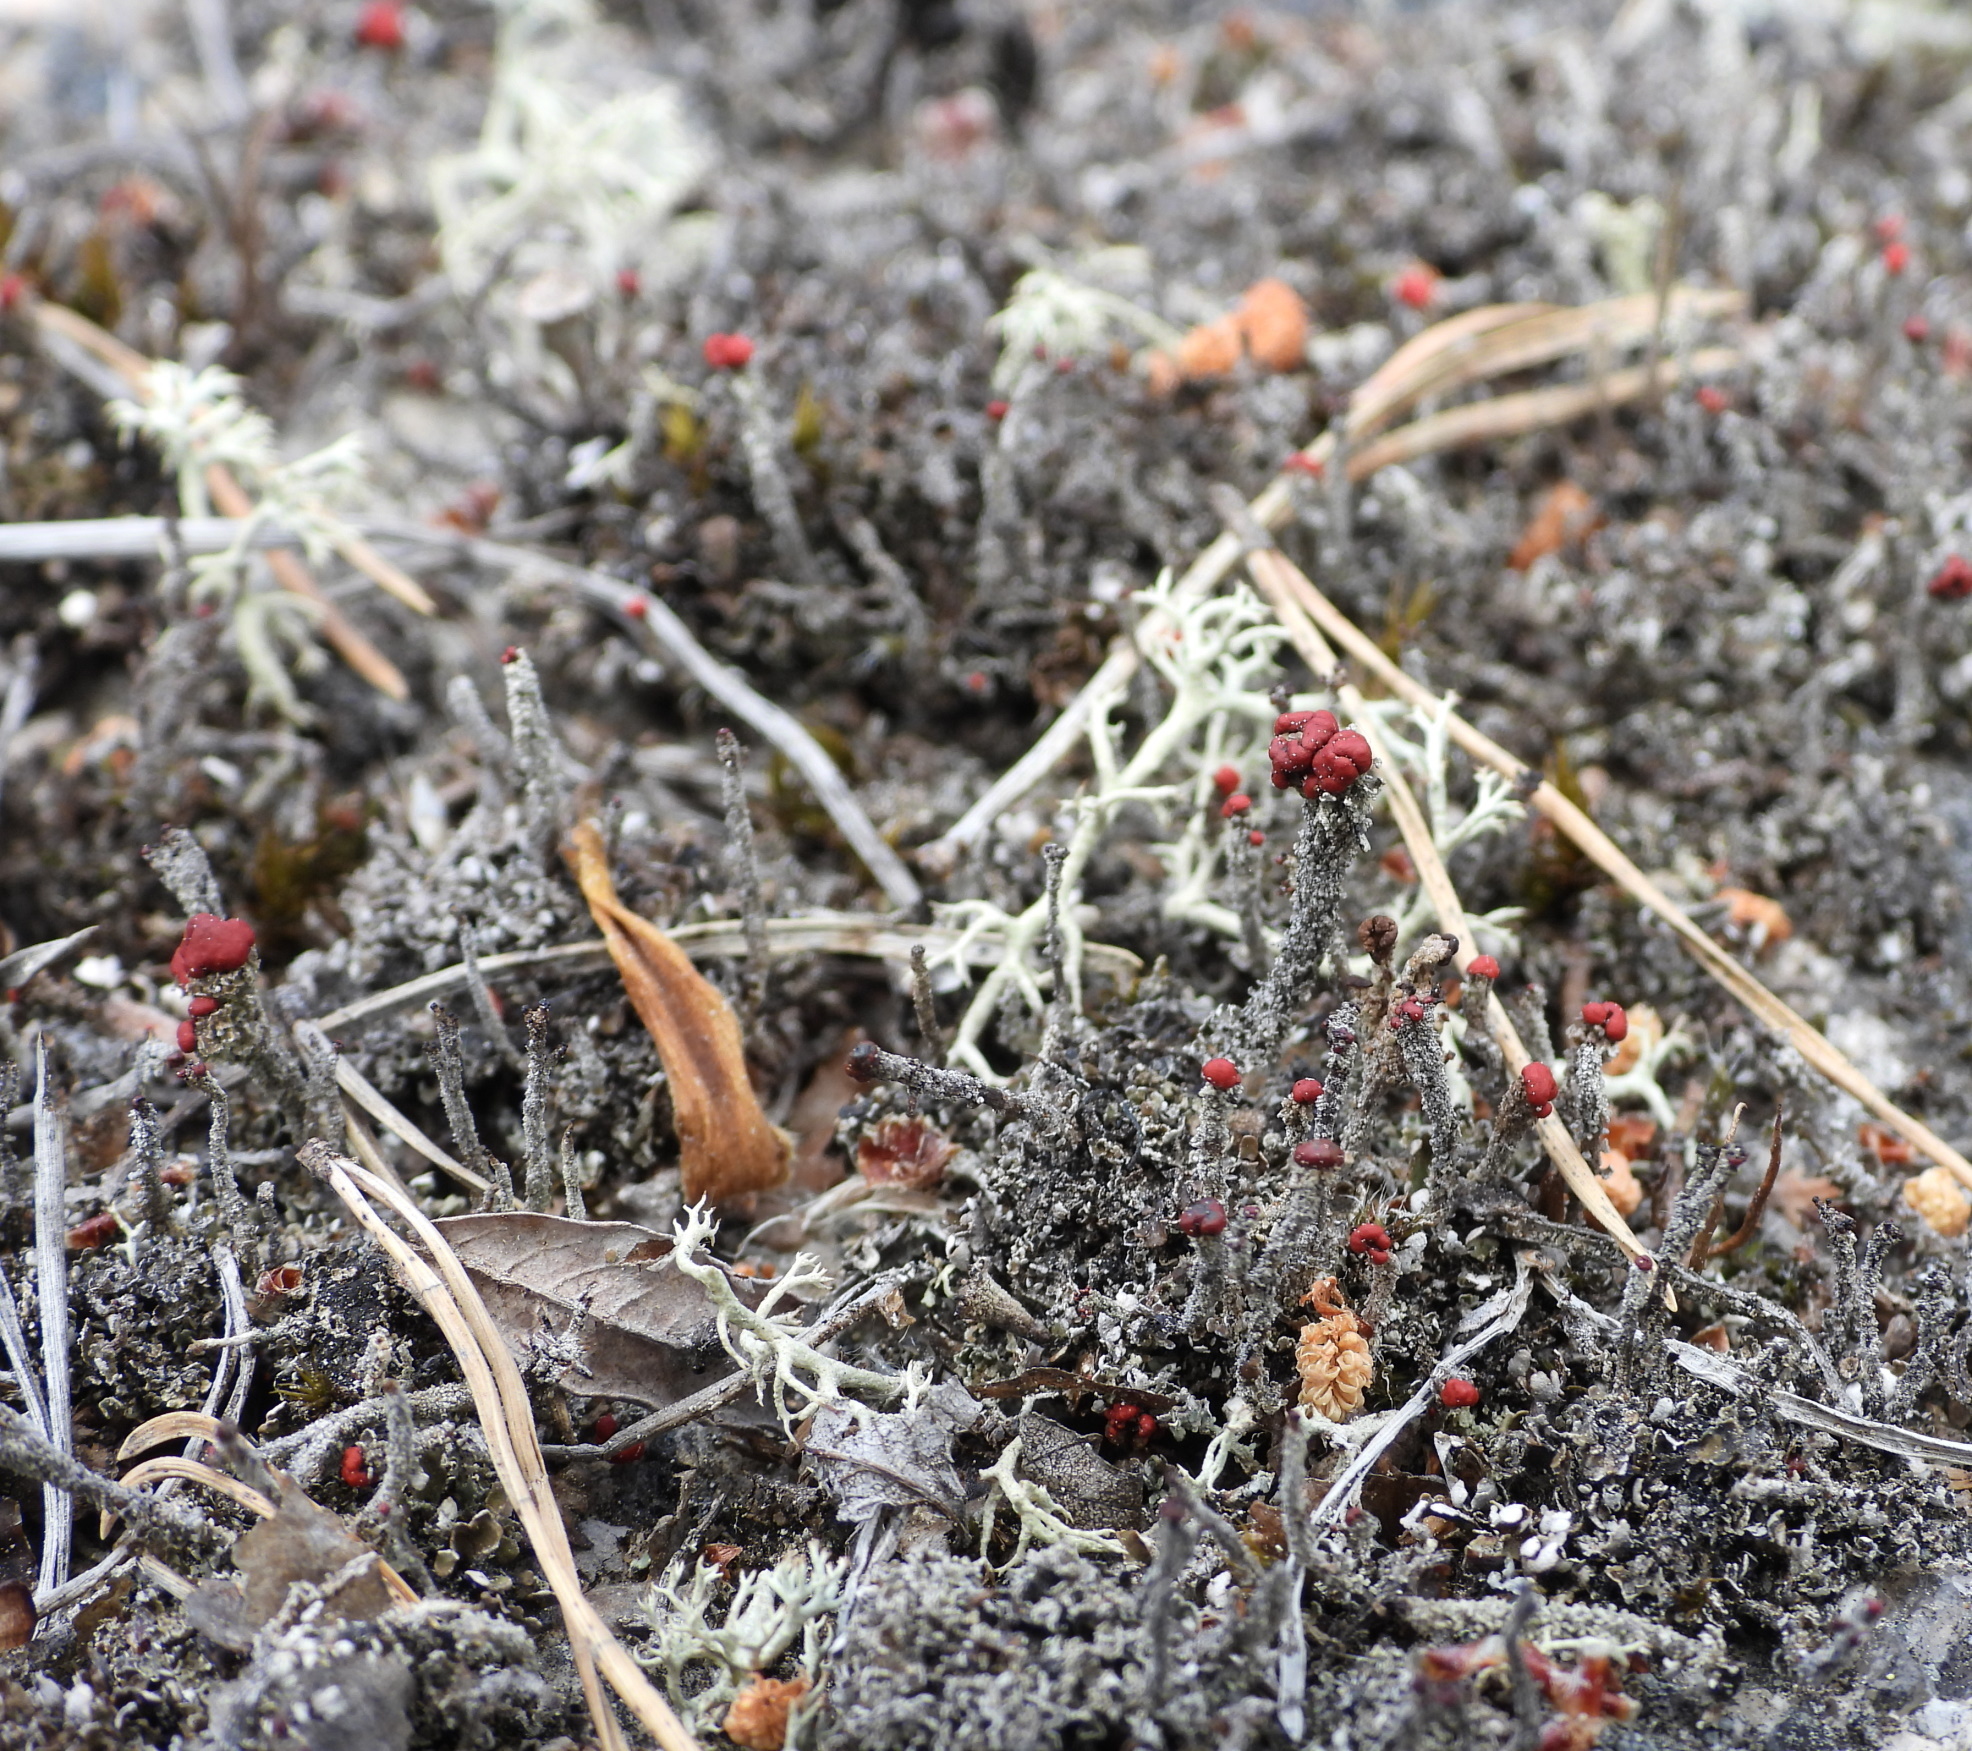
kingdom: Fungi
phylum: Ascomycota
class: Lecanoromycetes
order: Lecanorales
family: Cladoniaceae
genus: Cladonia
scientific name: Cladonia floerkeana
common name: Gritty british soldiers lichen
